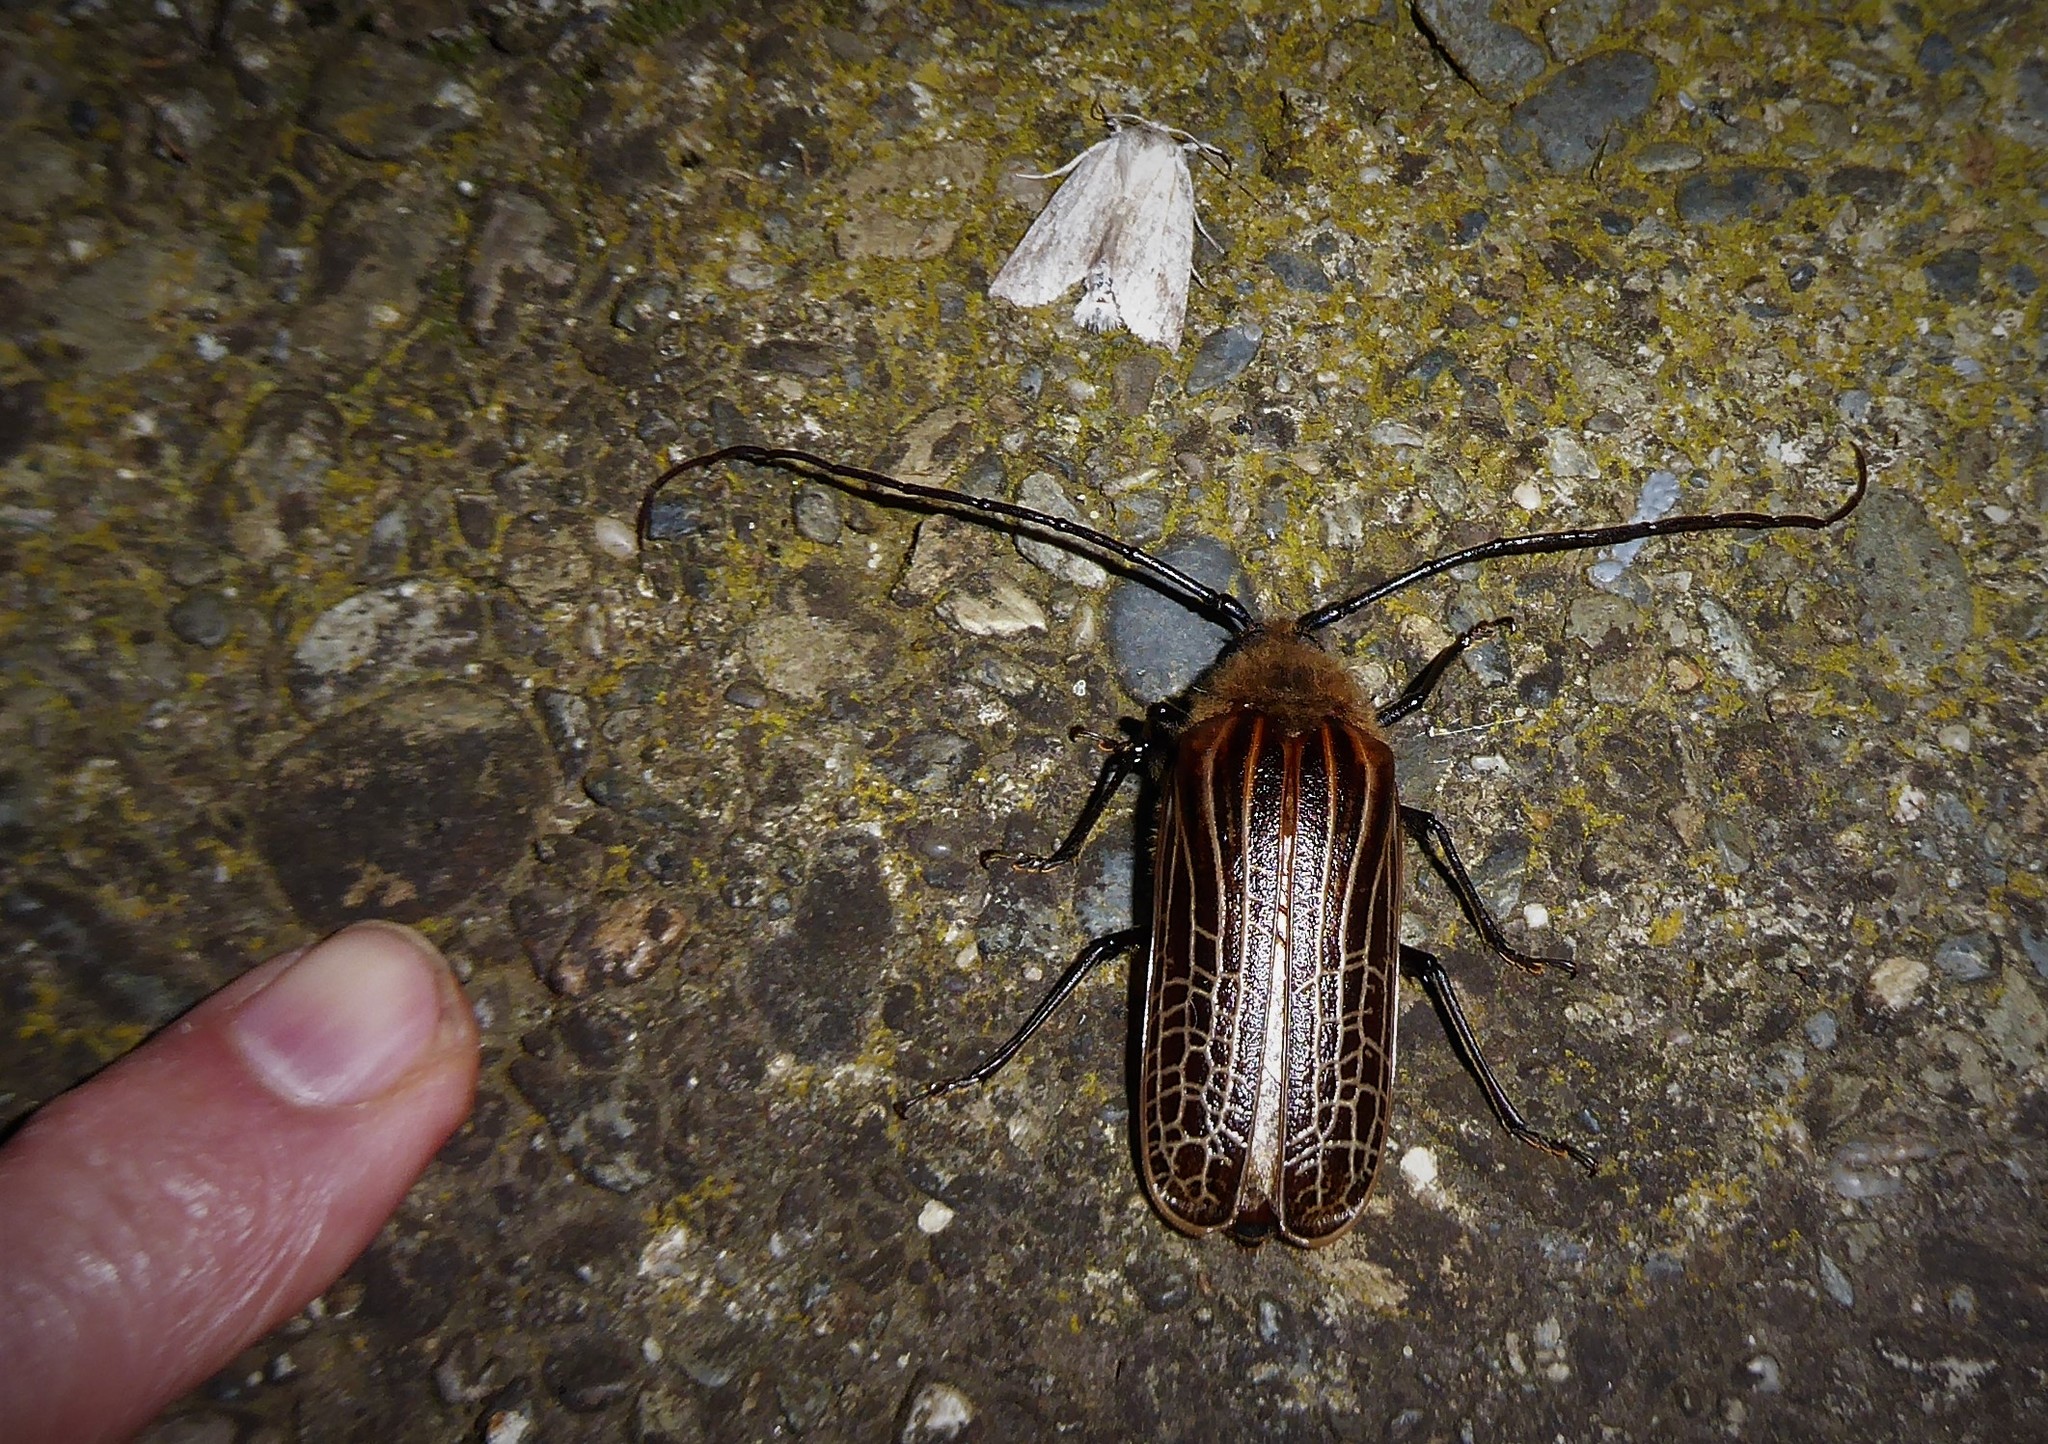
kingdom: Animalia
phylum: Arthropoda
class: Insecta
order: Coleoptera
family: Cerambycidae
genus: Prionoplus
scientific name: Prionoplus reticularis
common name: Huhu beetle
